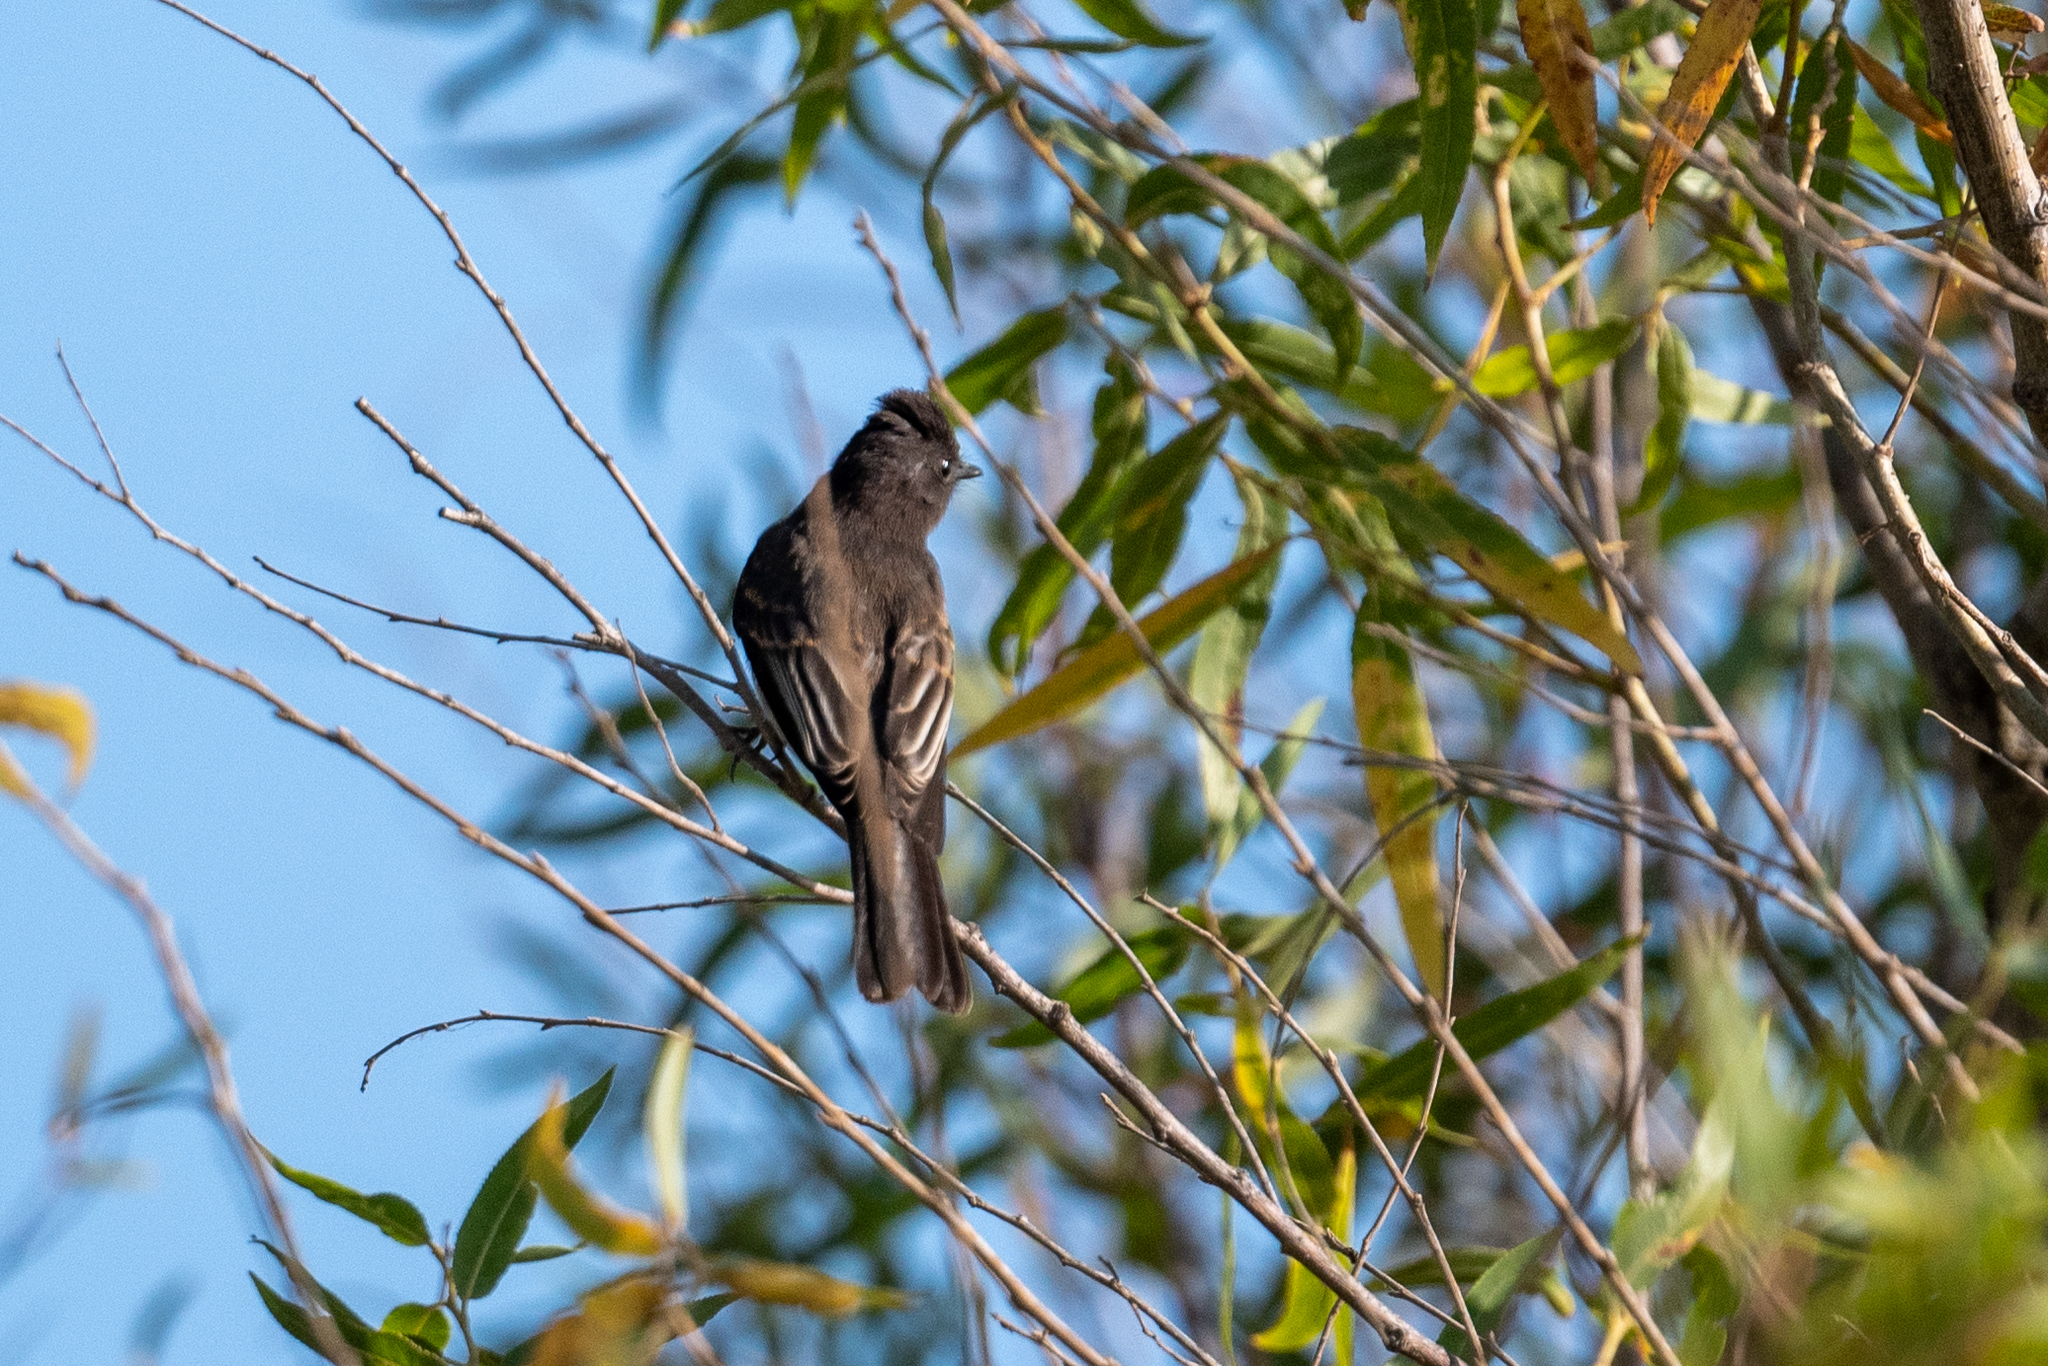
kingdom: Animalia
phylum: Chordata
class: Aves
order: Passeriformes
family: Tyrannidae
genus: Sayornis
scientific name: Sayornis nigricans
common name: Black phoebe
